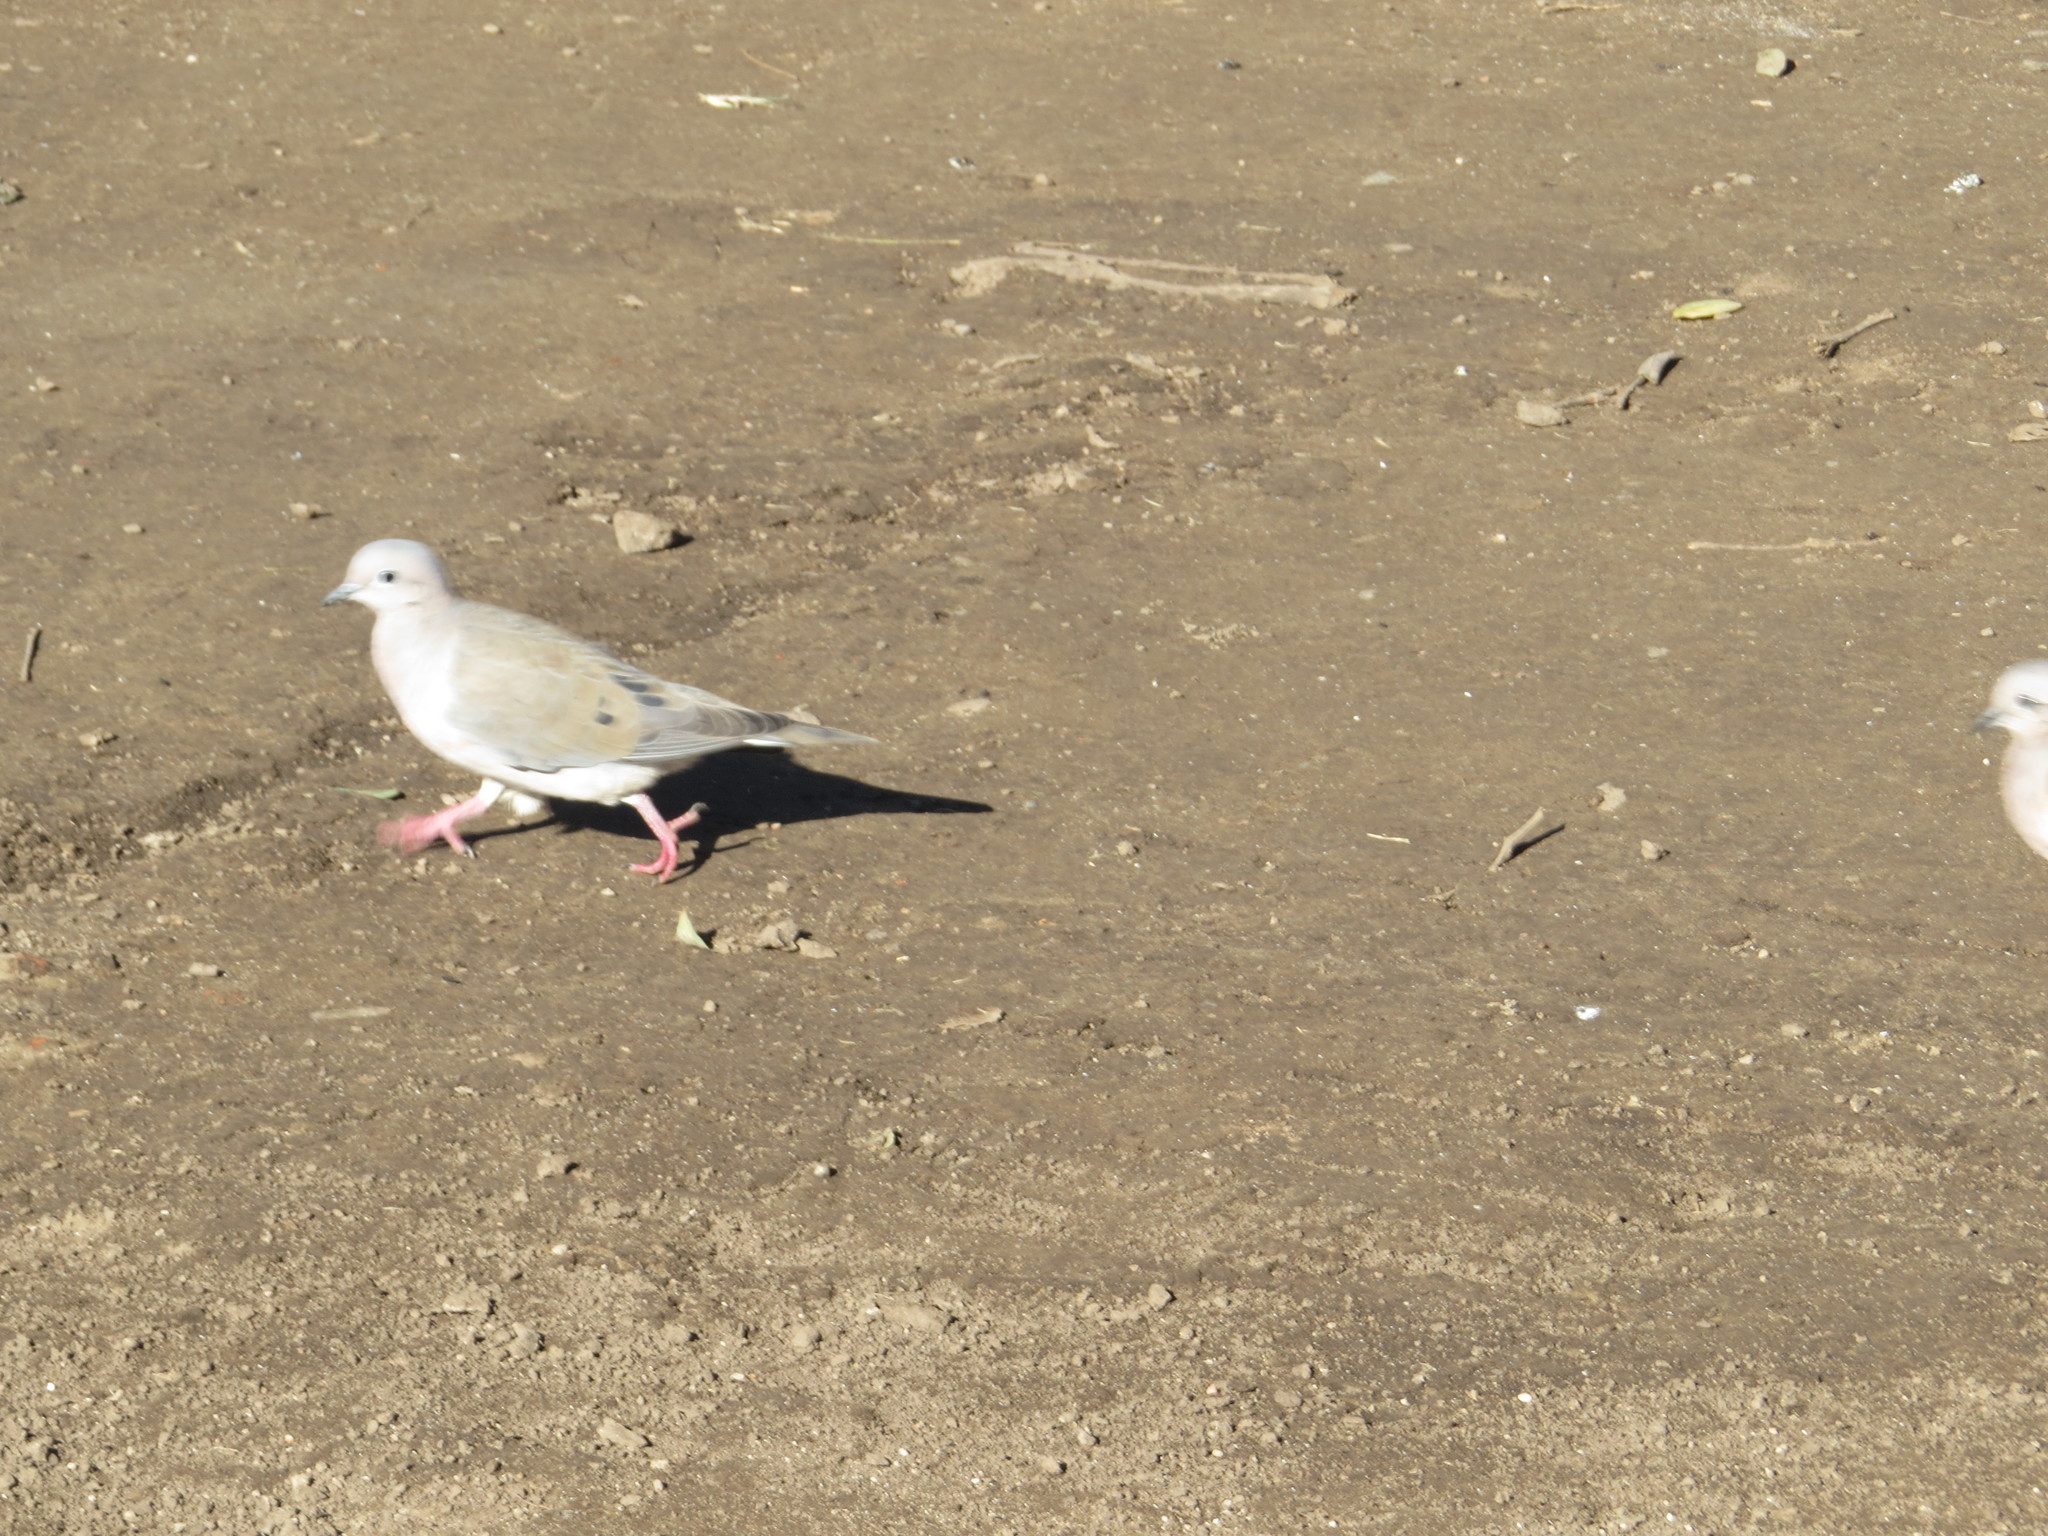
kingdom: Animalia
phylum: Chordata
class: Aves
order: Columbiformes
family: Columbidae
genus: Zenaida
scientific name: Zenaida auriculata
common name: Eared dove
